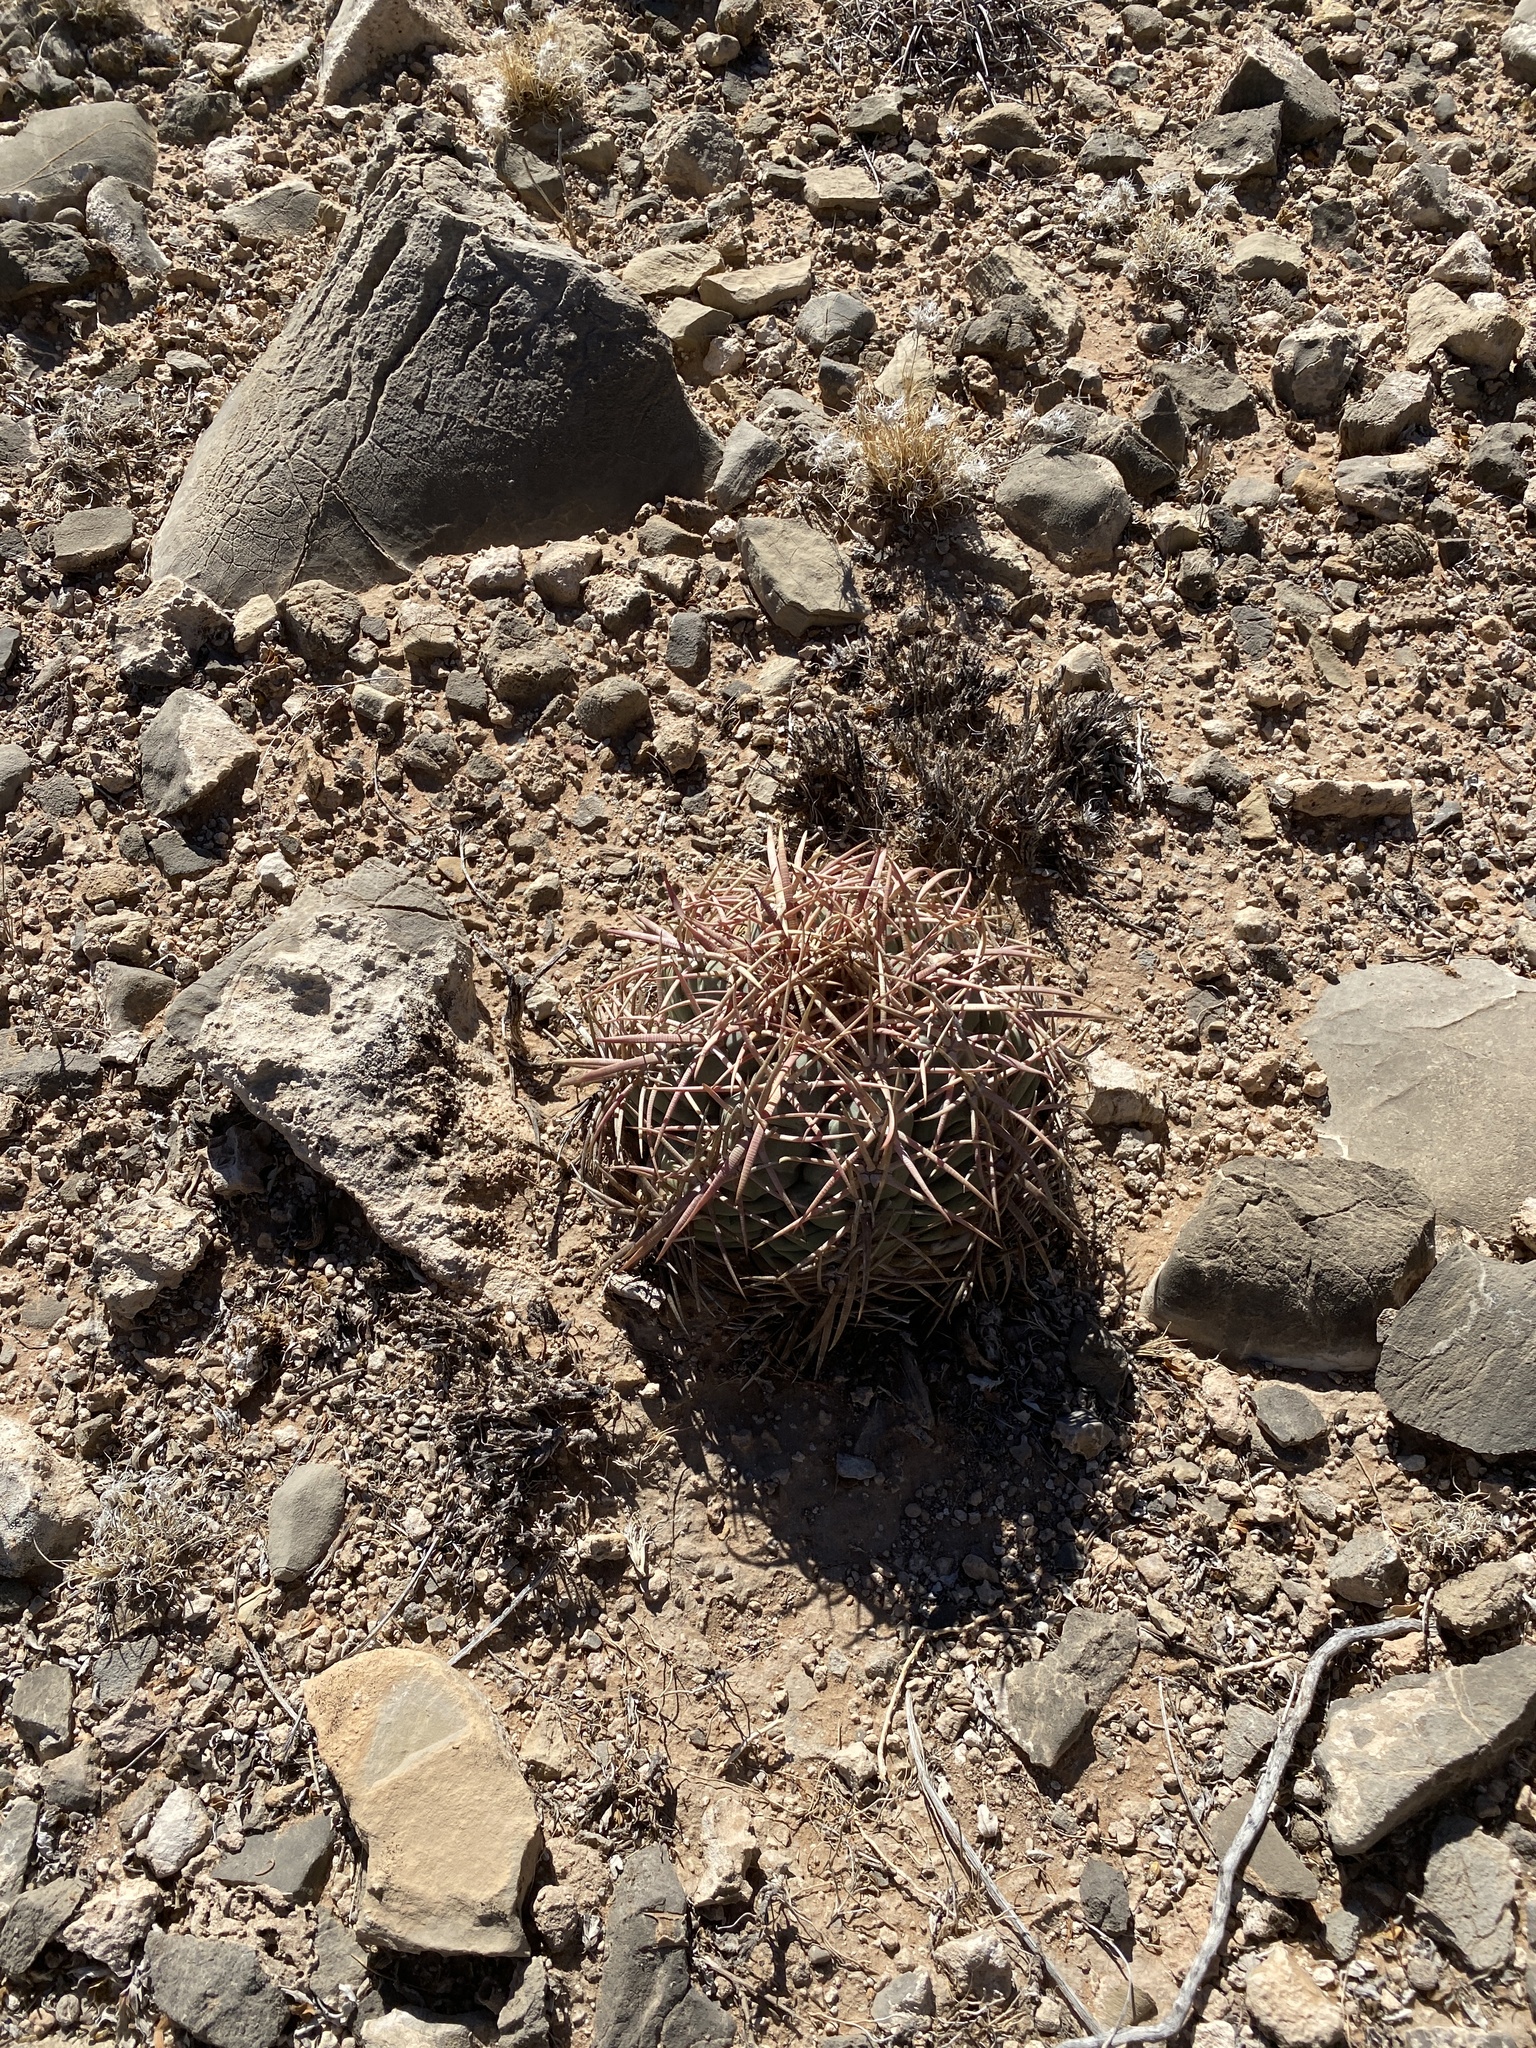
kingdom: Plantae
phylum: Tracheophyta
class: Magnoliopsida
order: Caryophyllales
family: Cactaceae
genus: Echinocactus
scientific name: Echinocactus horizonthalonius
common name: Devilshead
